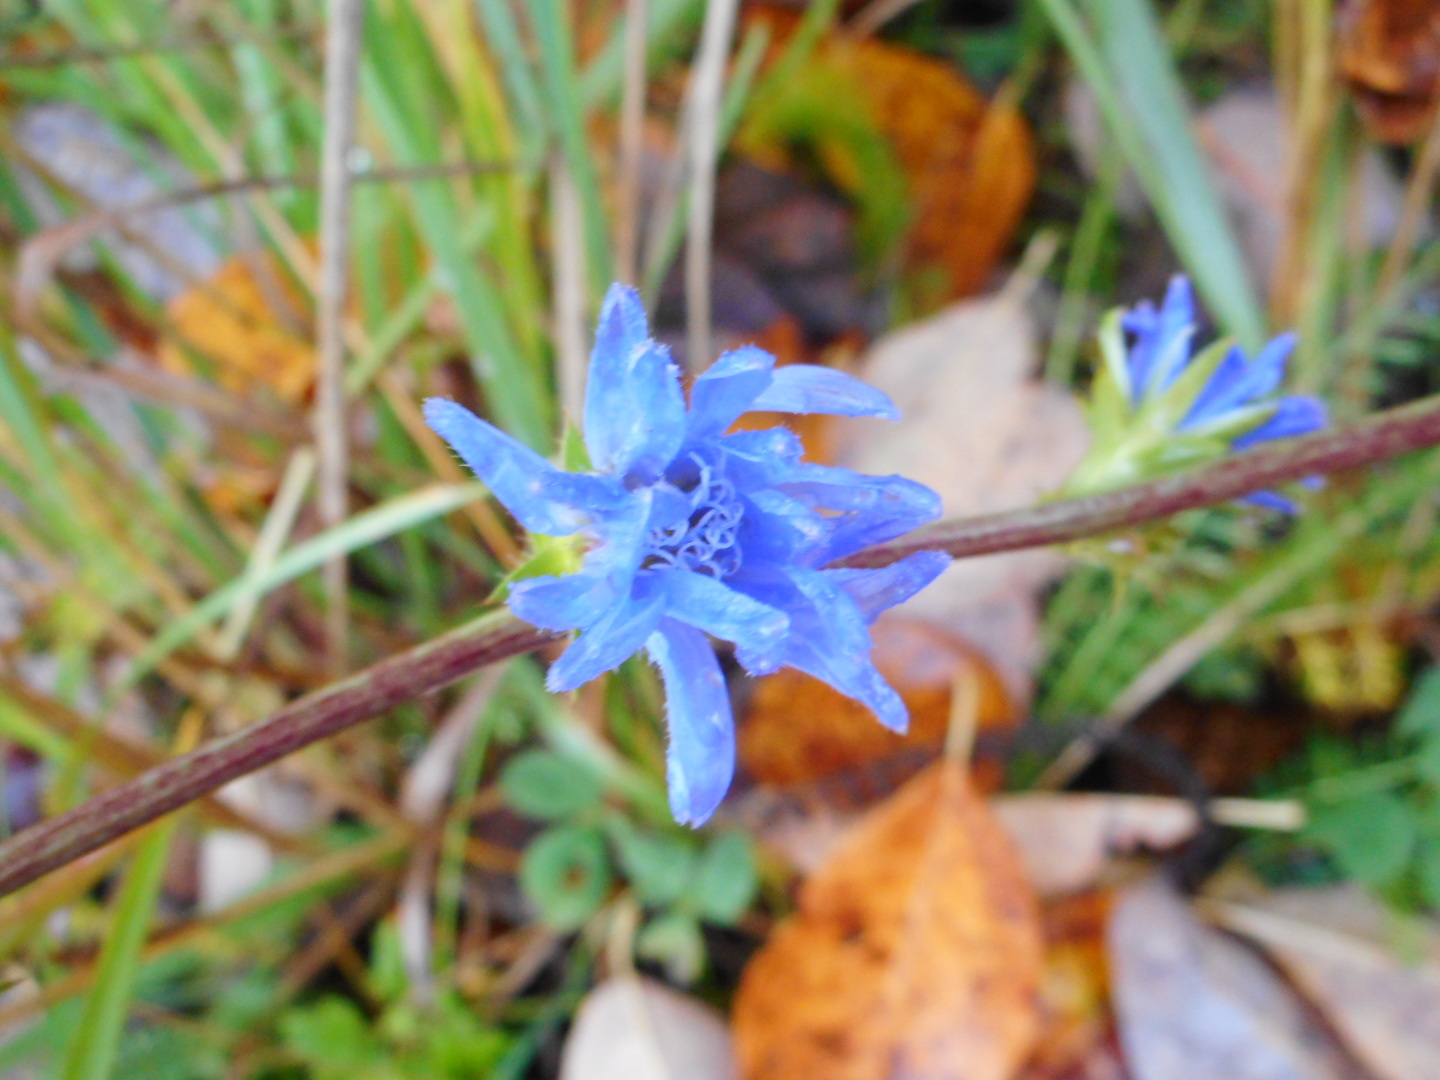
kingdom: Plantae
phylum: Tracheophyta
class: Magnoliopsida
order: Asterales
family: Asteraceae
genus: Cichorium
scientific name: Cichorium intybus
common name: Chicory
